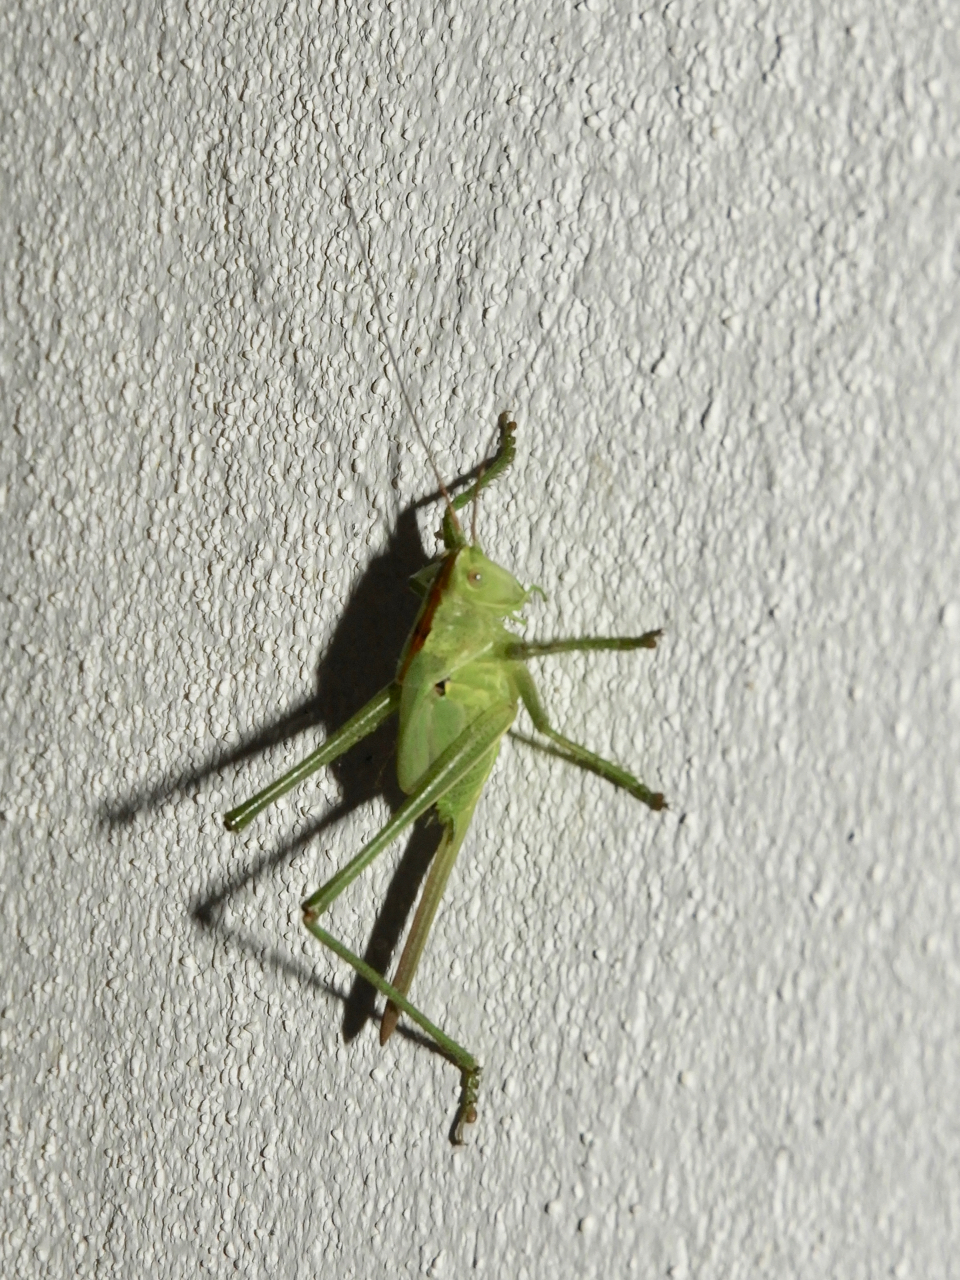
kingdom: Animalia
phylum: Arthropoda
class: Insecta
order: Orthoptera
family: Tettigoniidae
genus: Tettigonia
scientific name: Tettigonia viridissima
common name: Great green bush-cricket
